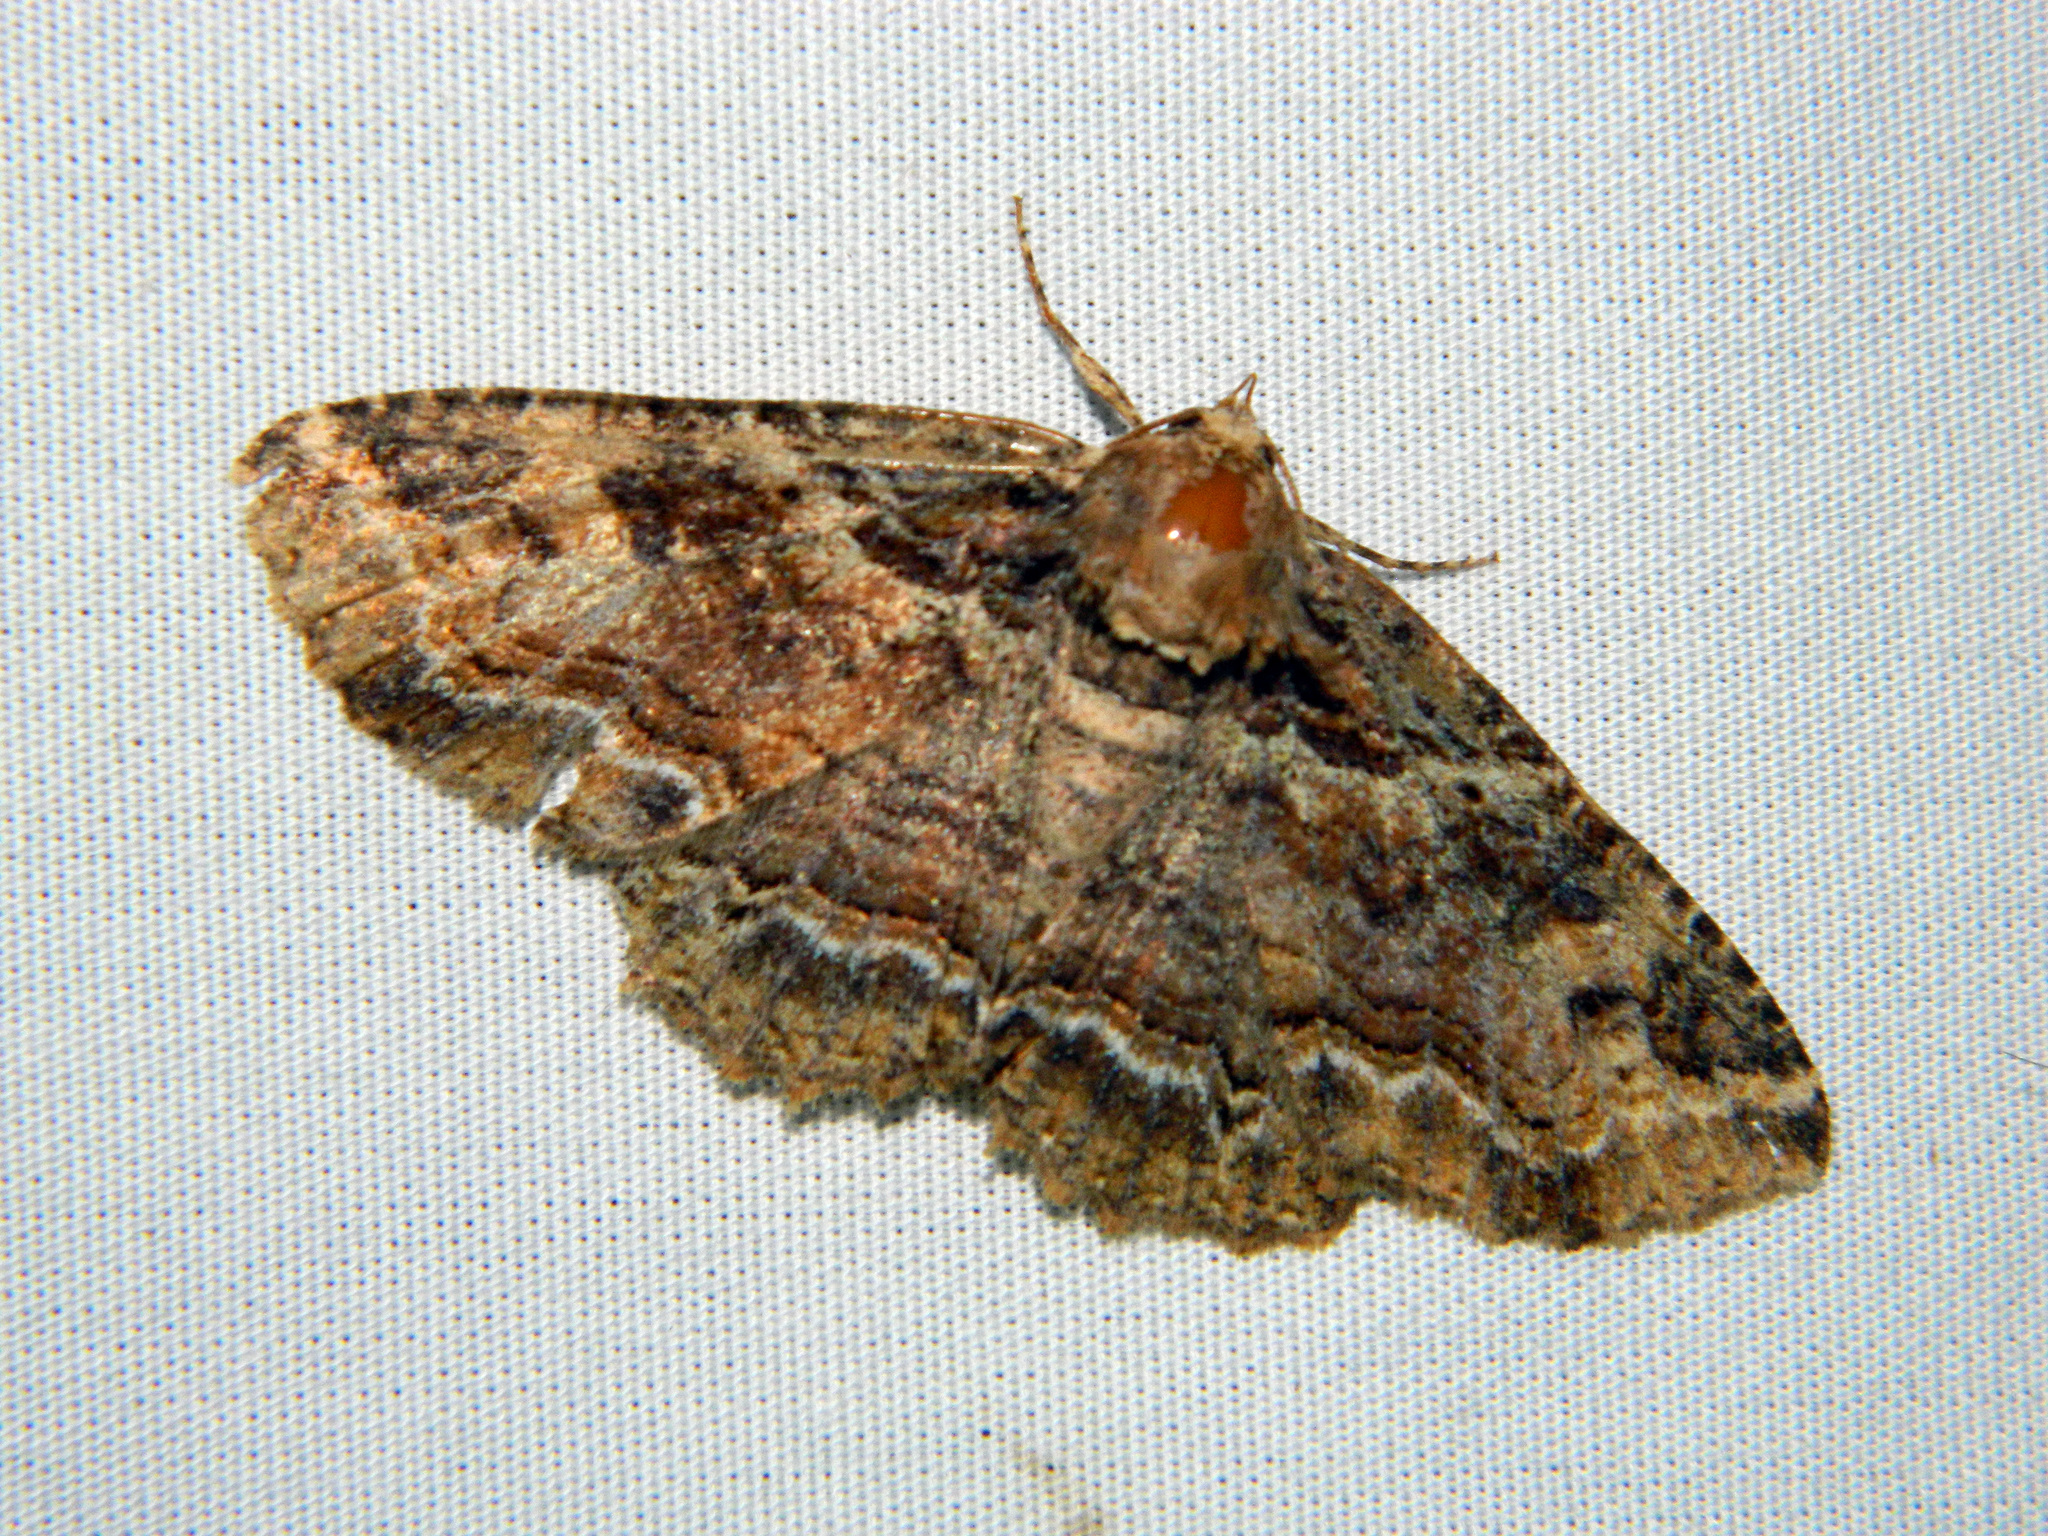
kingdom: Animalia
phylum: Arthropoda
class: Insecta
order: Lepidoptera
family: Erebidae
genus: Zale
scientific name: Zale minerea
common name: Colorful zale moth
